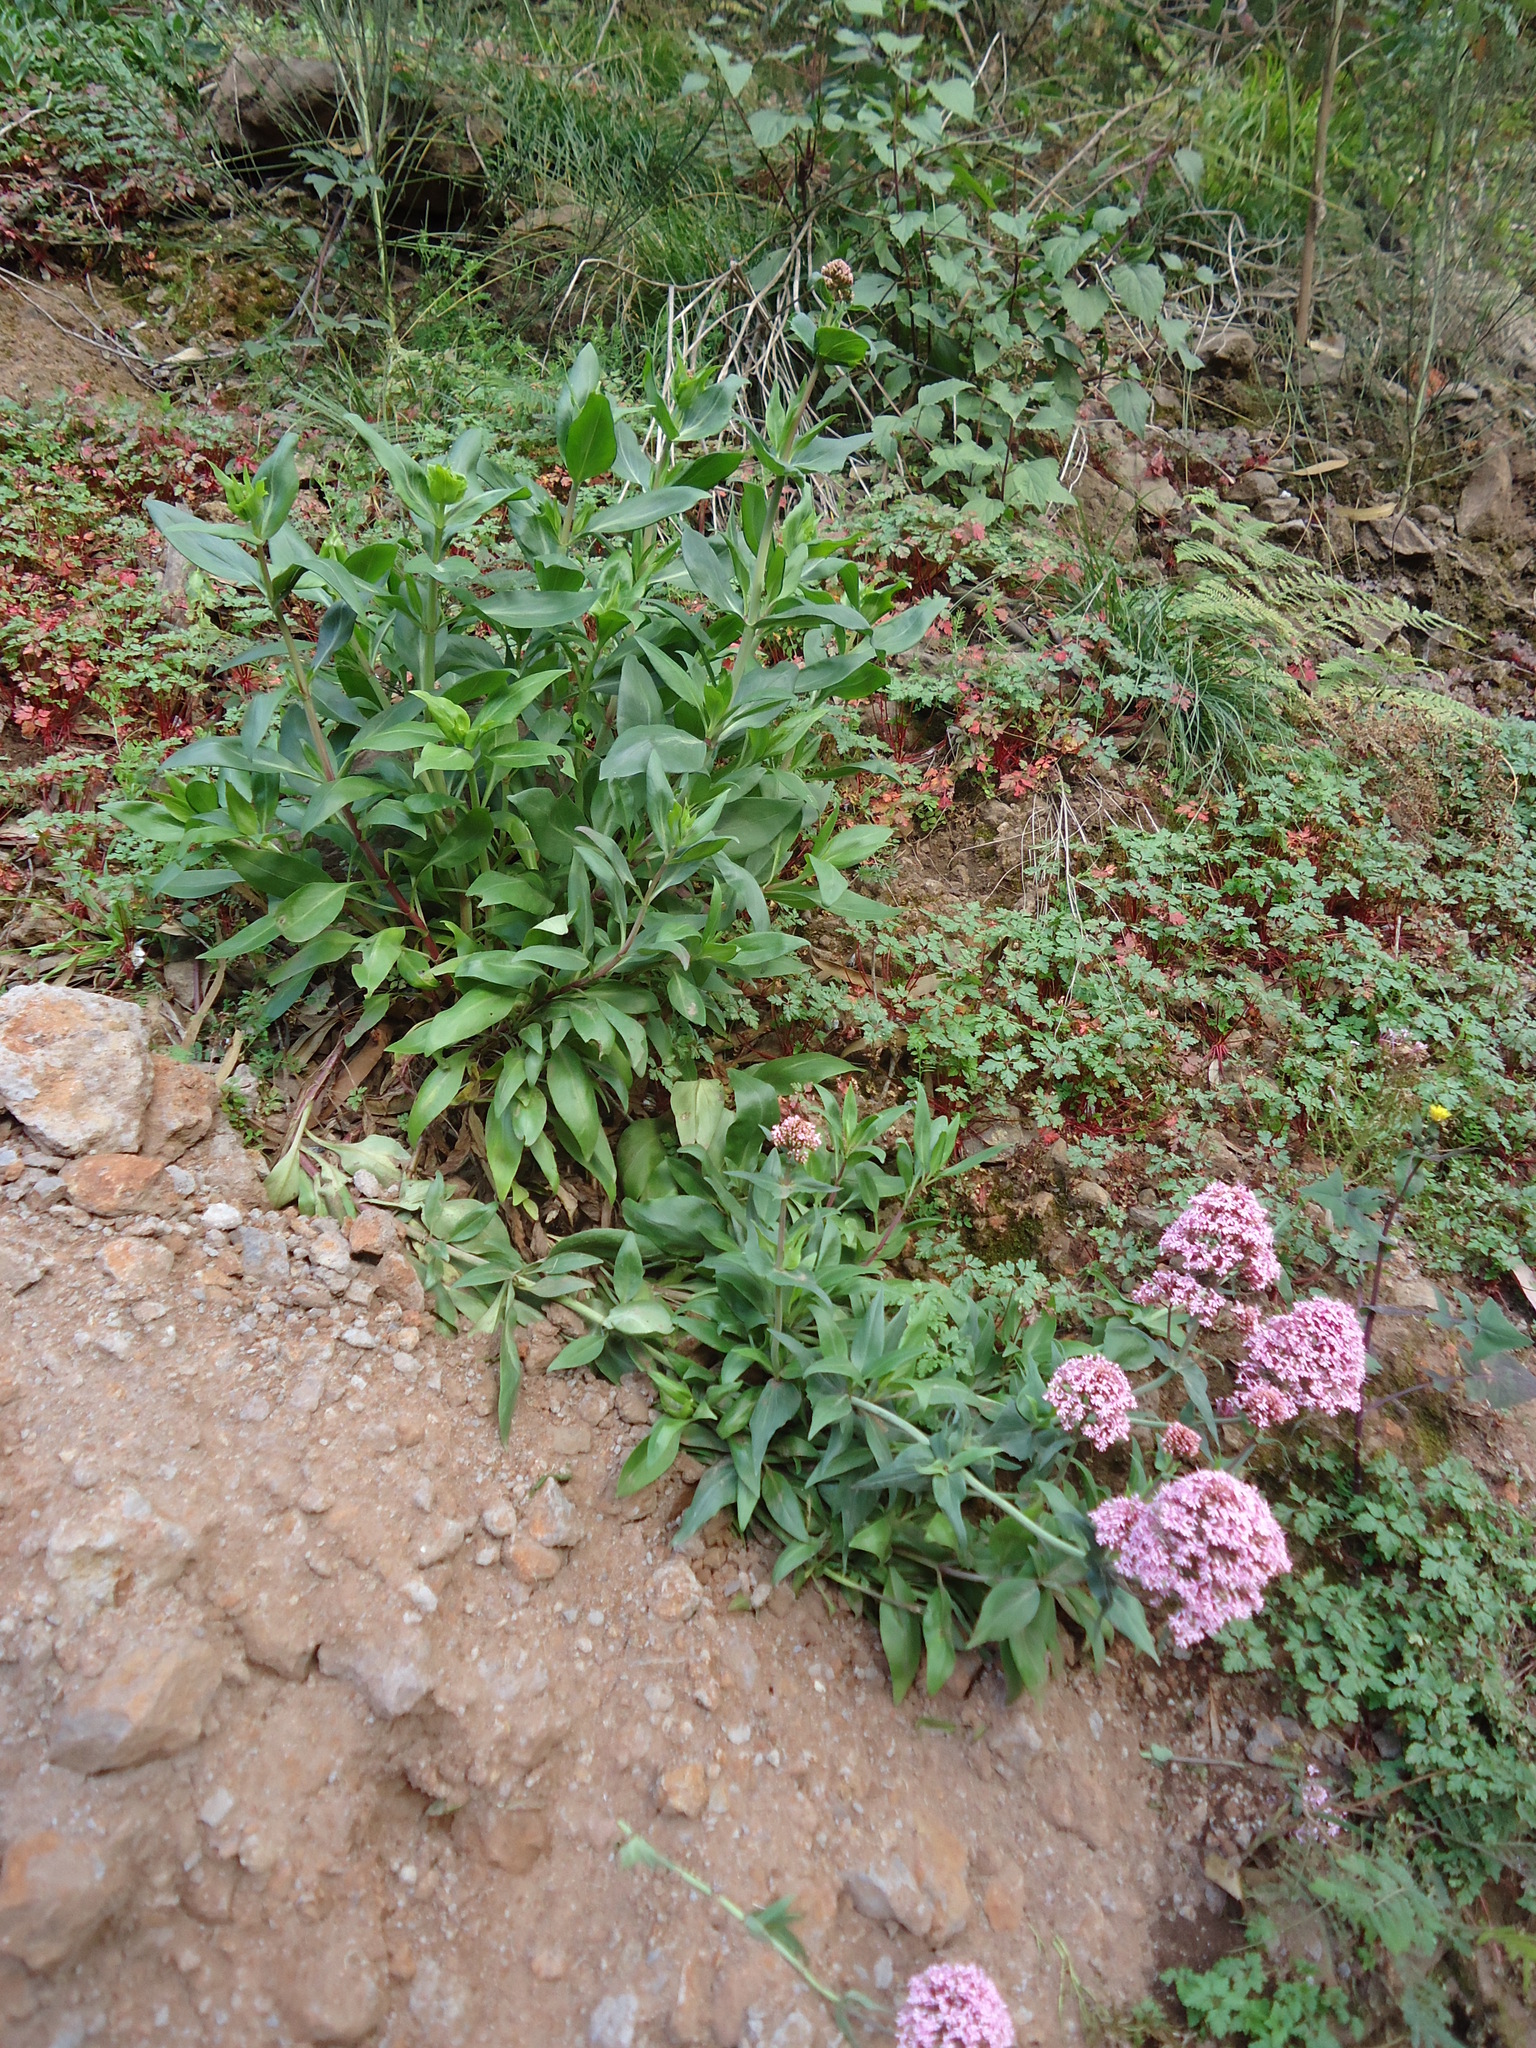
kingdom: Plantae
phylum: Tracheophyta
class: Magnoliopsida
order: Dipsacales
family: Caprifoliaceae
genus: Centranthus
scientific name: Centranthus ruber
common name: Red valerian
